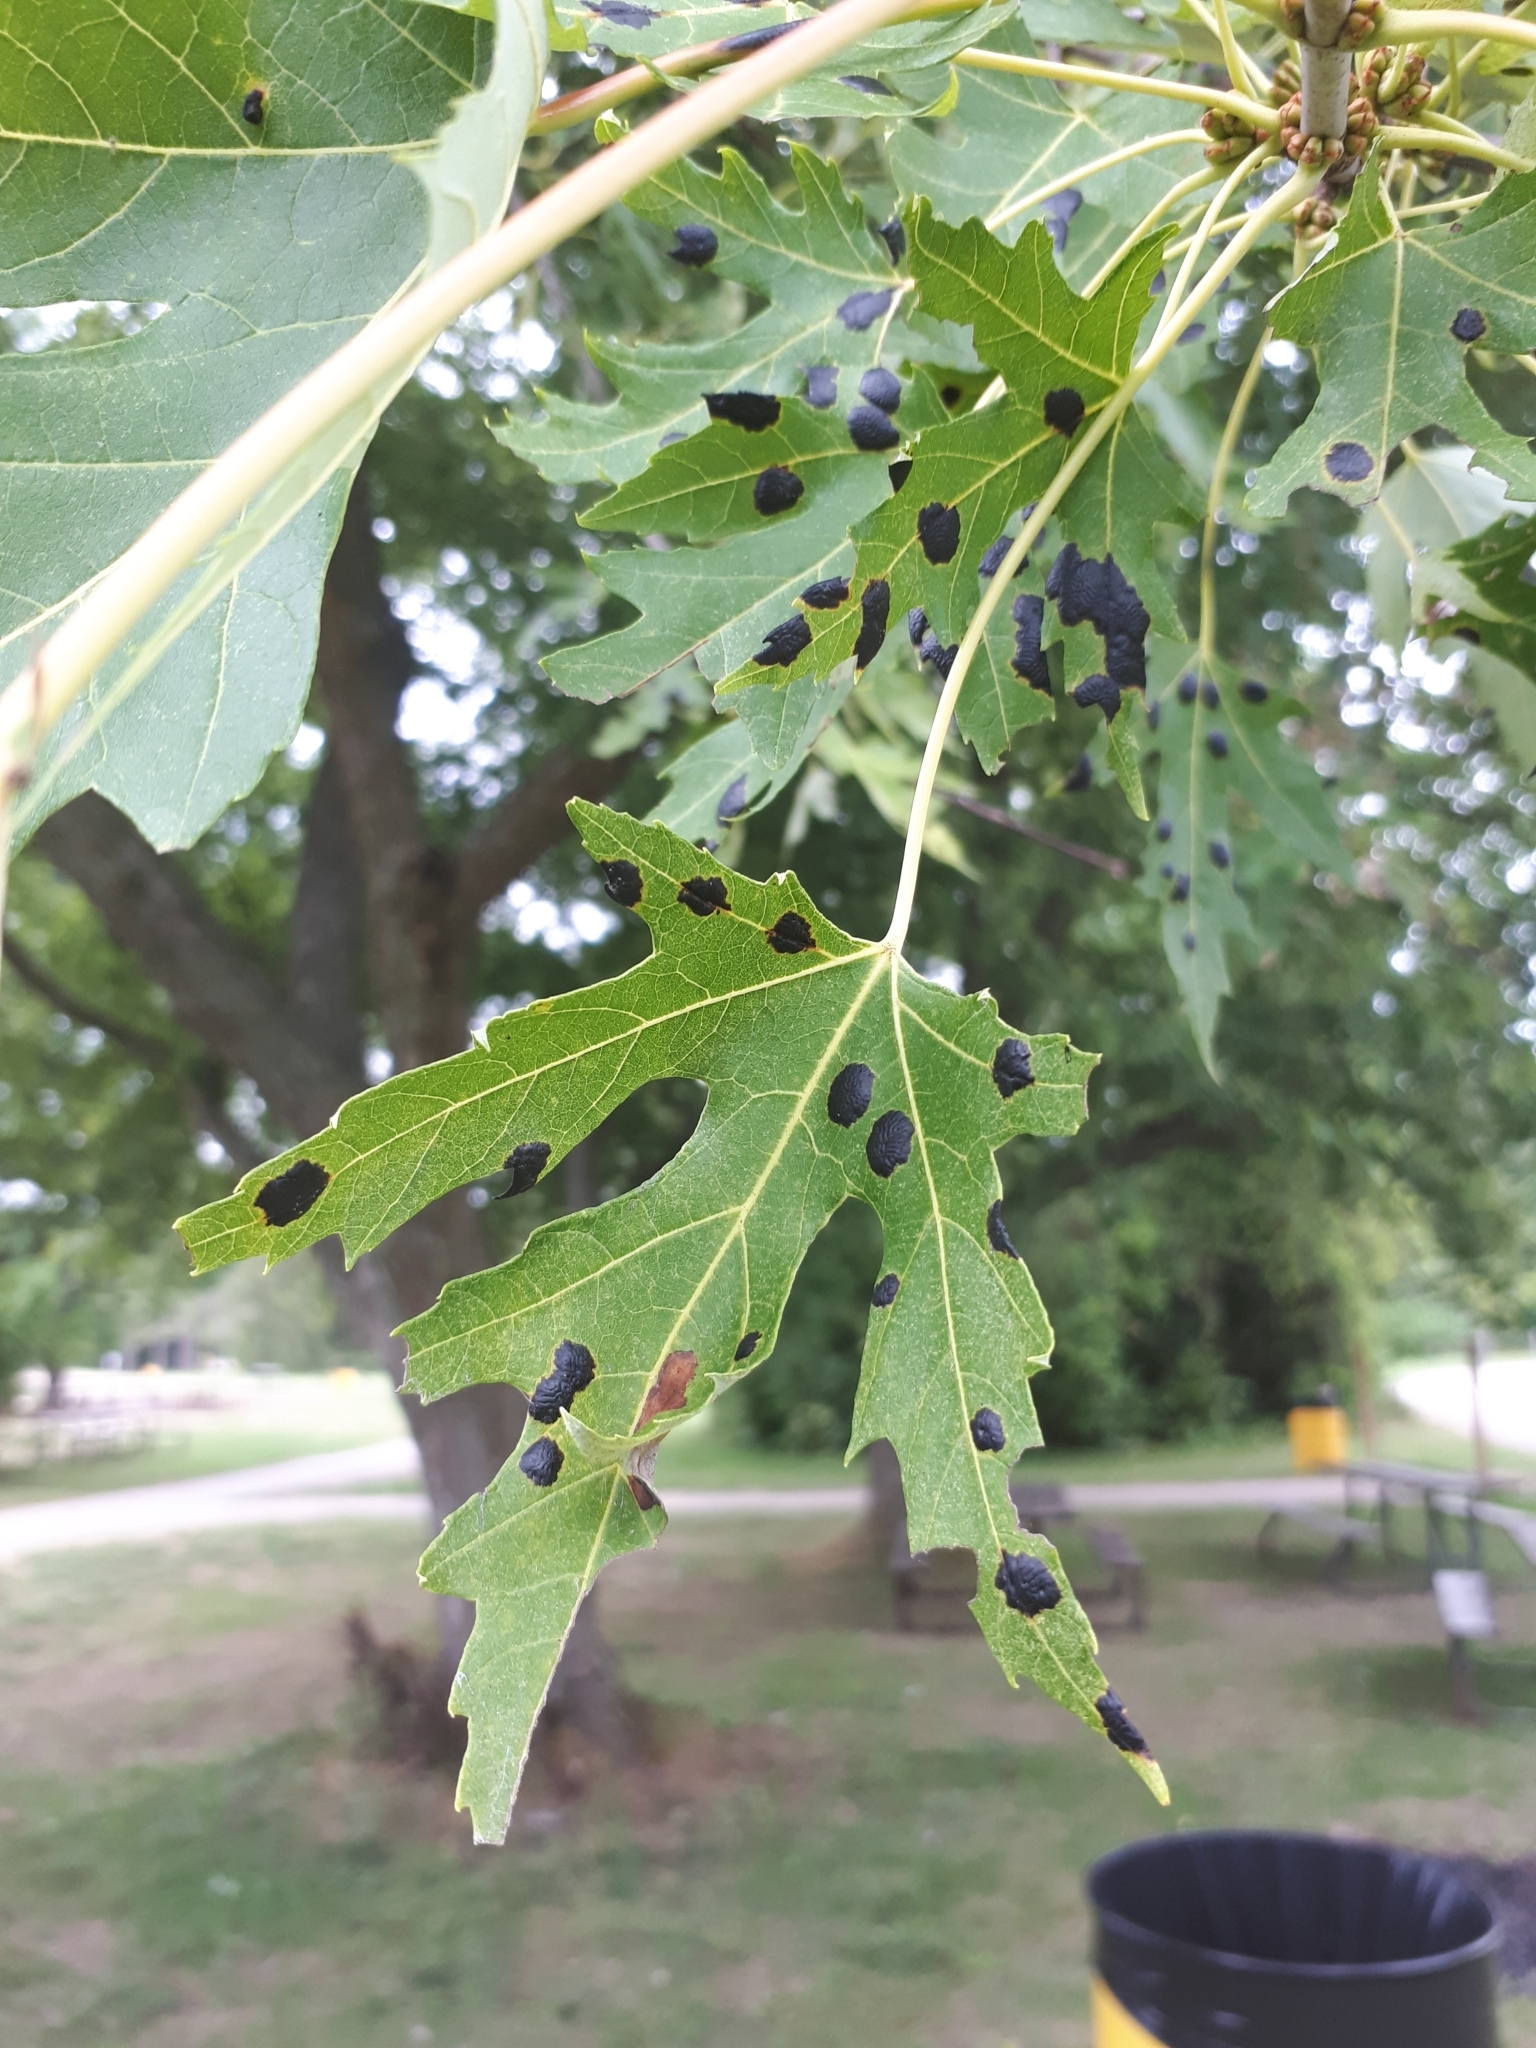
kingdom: Fungi
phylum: Ascomycota
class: Leotiomycetes
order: Rhytismatales
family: Rhytismataceae
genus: Rhytisma
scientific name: Rhytisma americanum
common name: American tar spot
